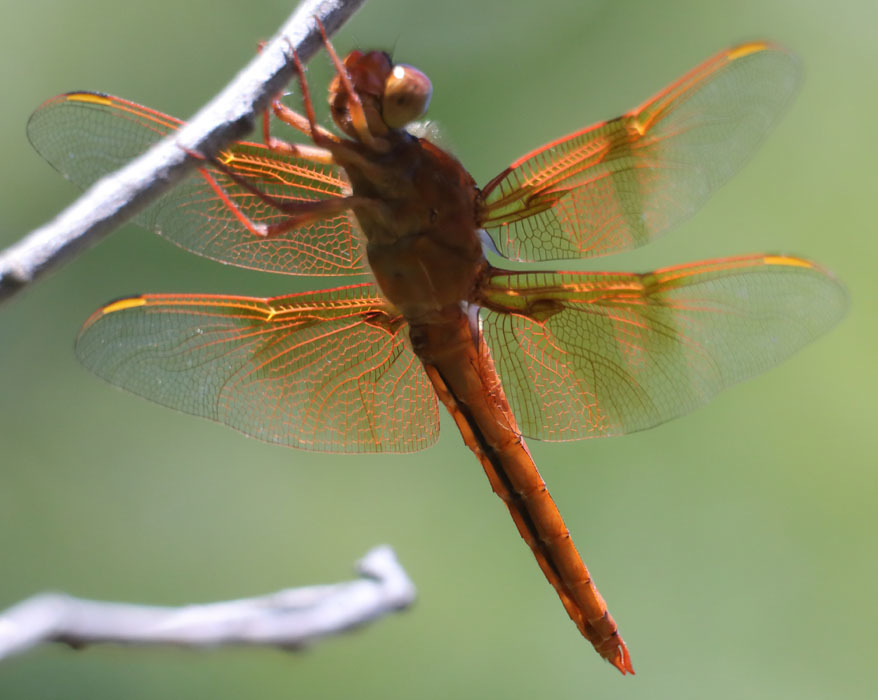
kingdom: Animalia
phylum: Arthropoda
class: Insecta
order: Odonata
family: Libellulidae
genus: Libellula
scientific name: Libellula saturata
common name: Flame skimmer
